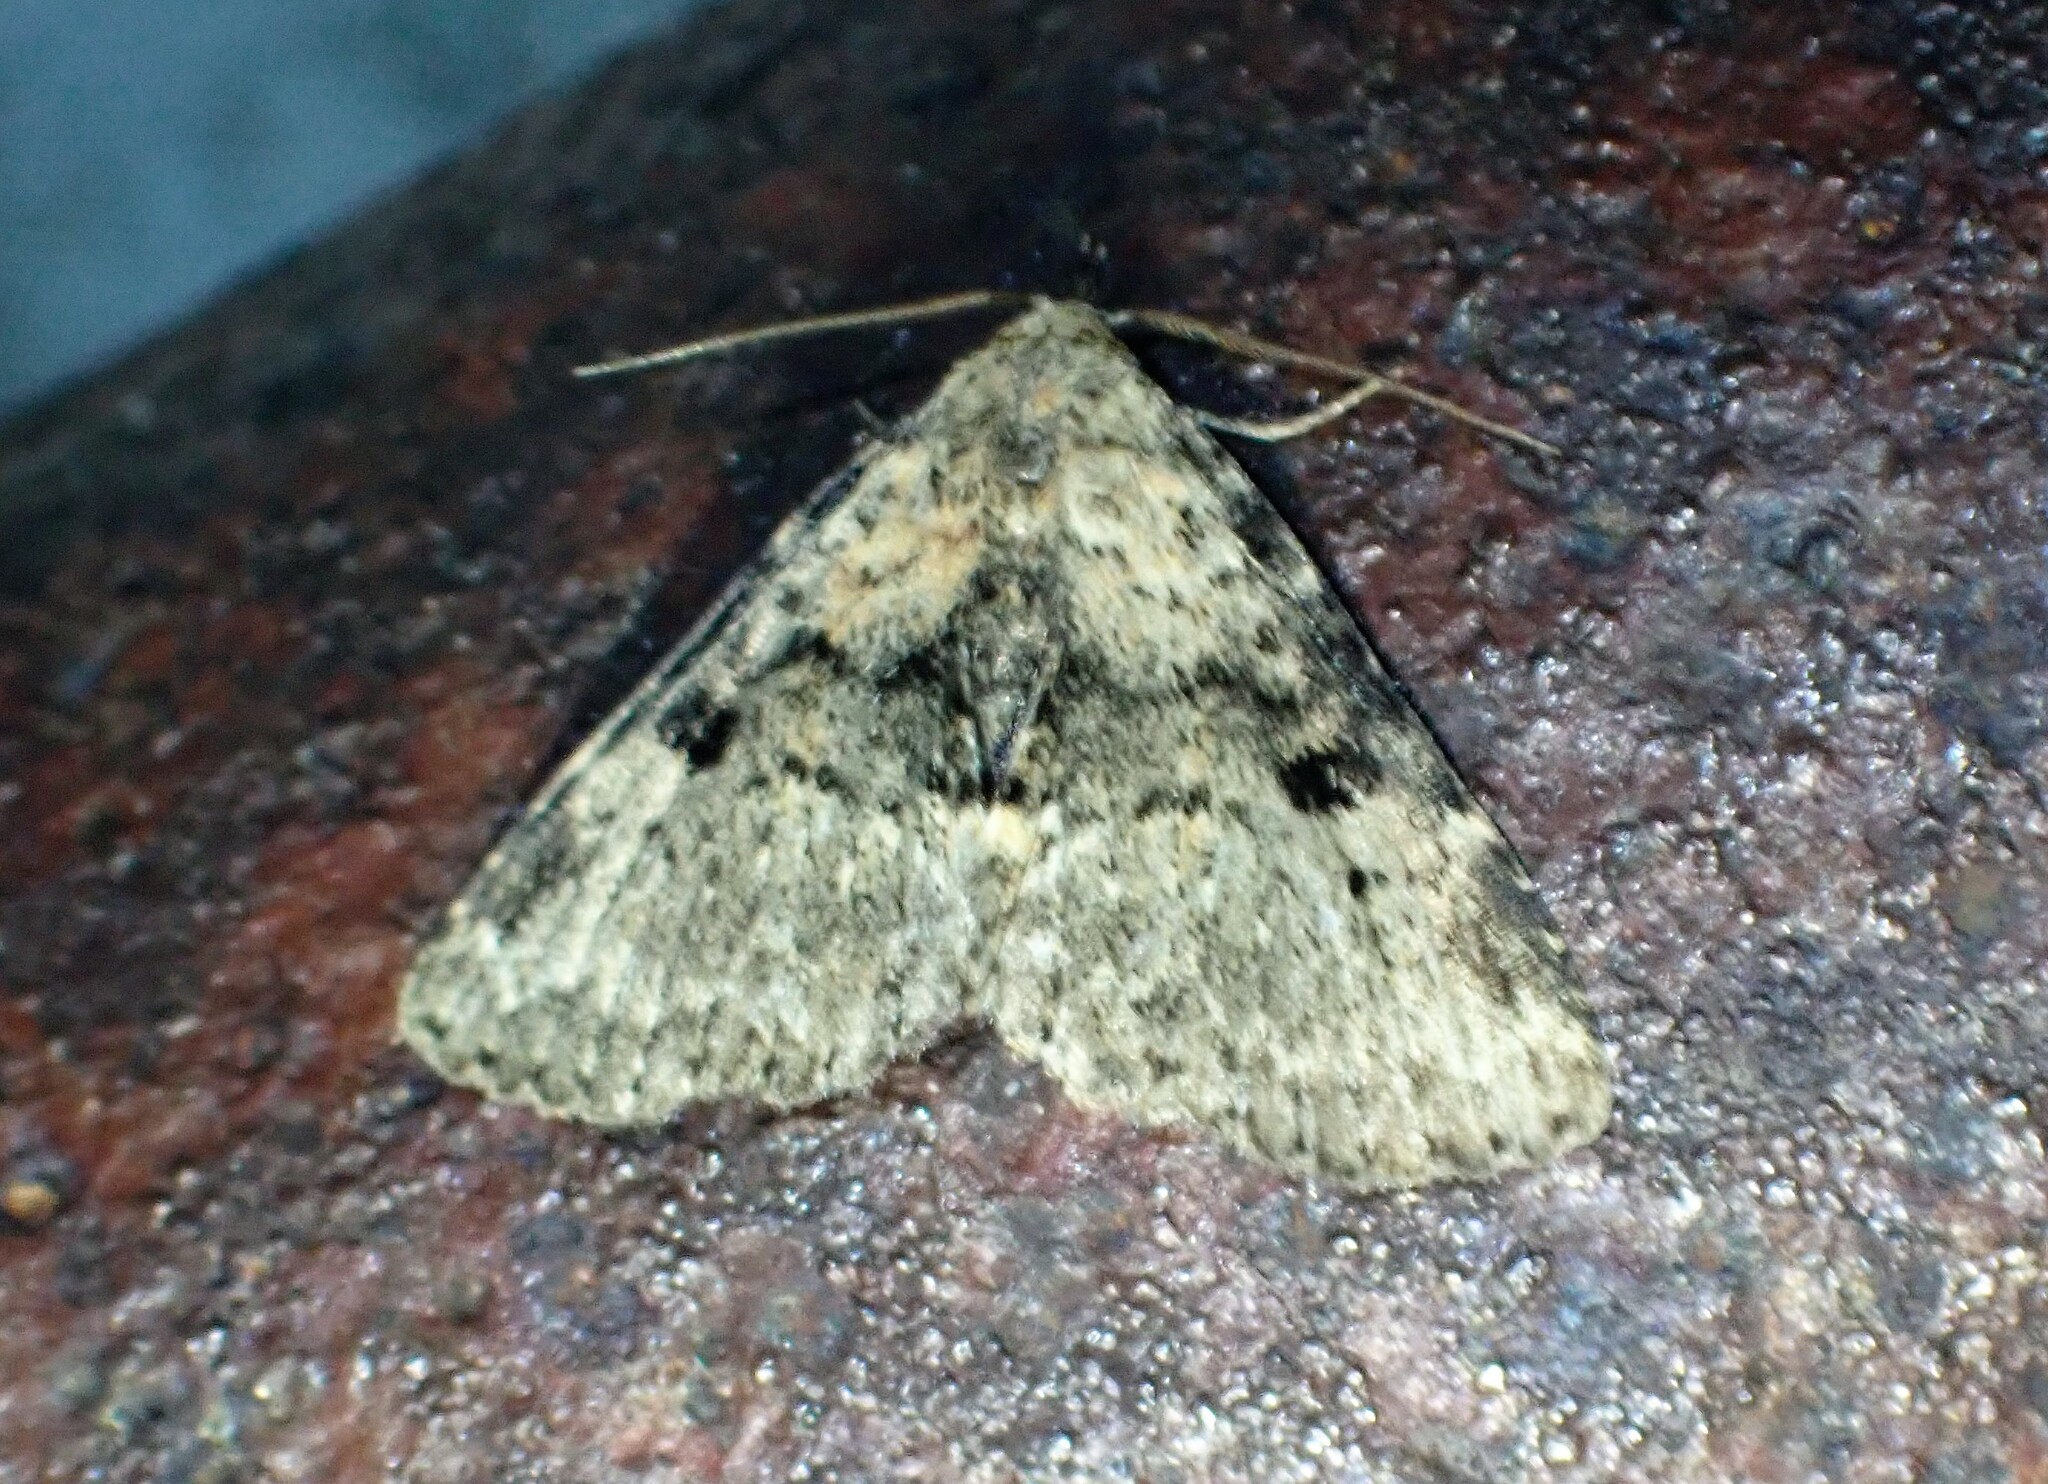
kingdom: Animalia
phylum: Arthropoda
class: Insecta
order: Lepidoptera
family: Erebidae
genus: Metalectra
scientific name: Metalectra quadrisignata
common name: Four-spotted fungus moth
